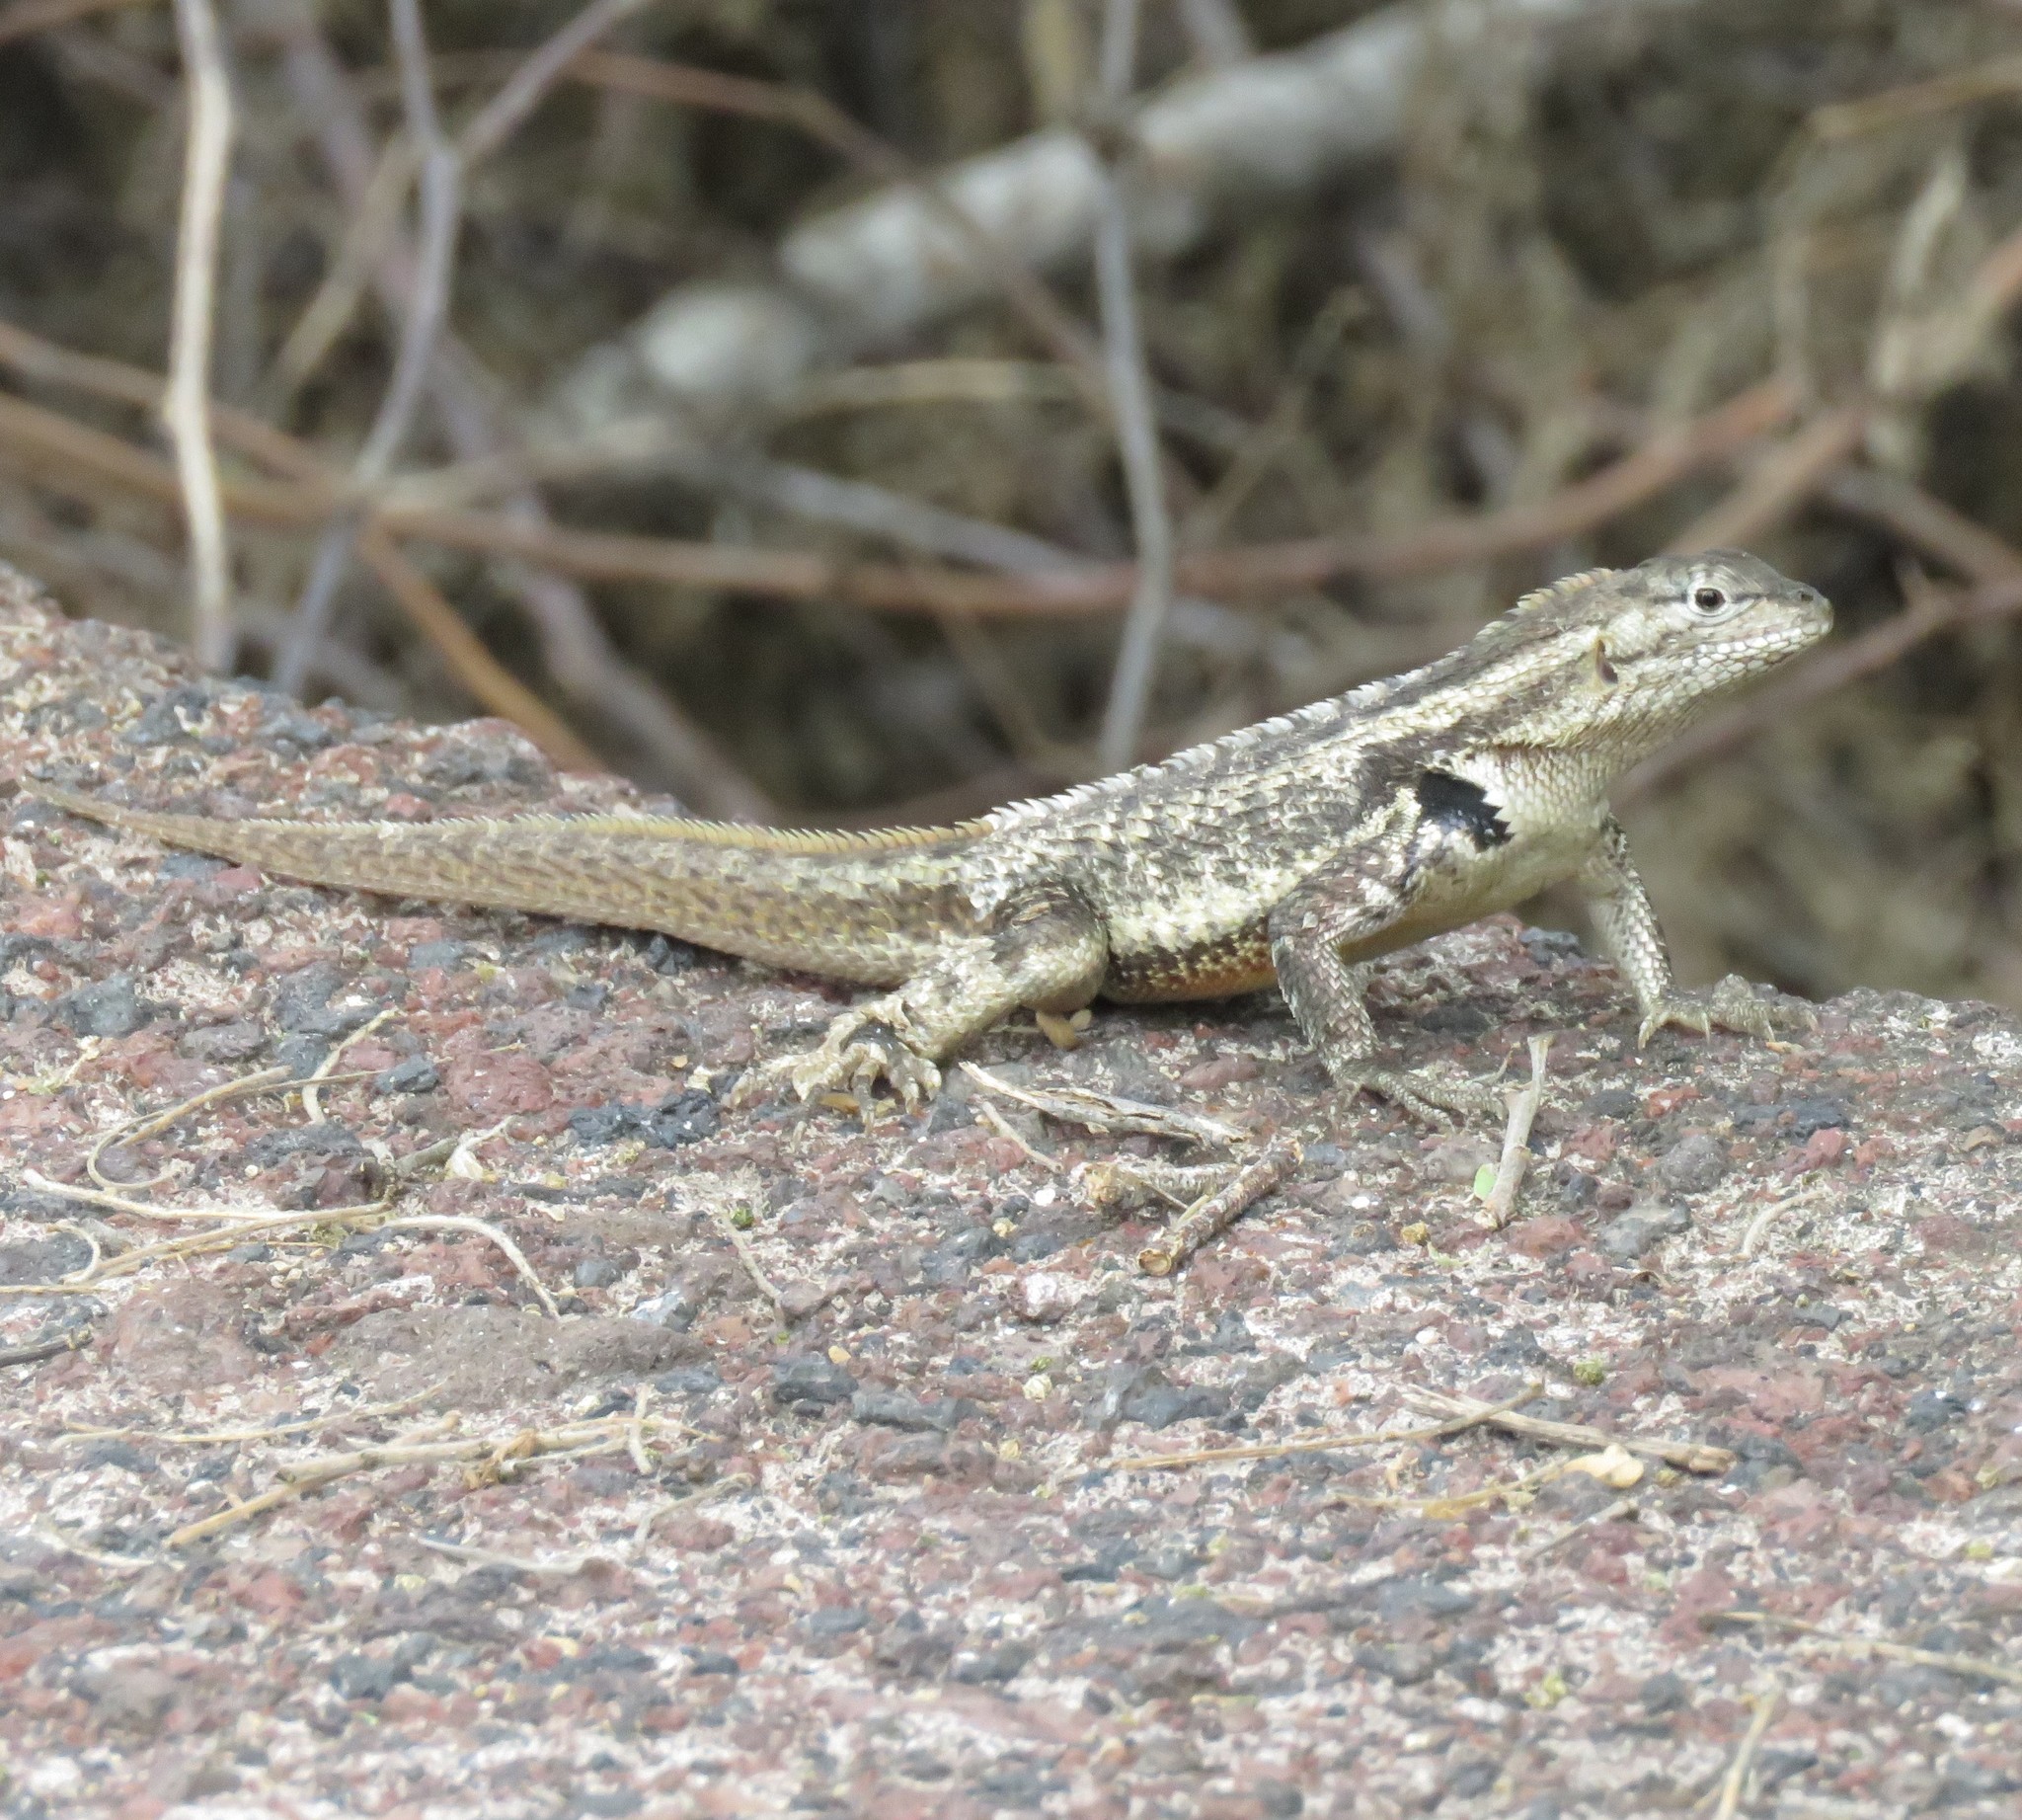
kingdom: Animalia
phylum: Chordata
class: Squamata
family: Tropiduridae
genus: Microlophus
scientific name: Microlophus bivittatus
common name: San cristobal lava lizard
